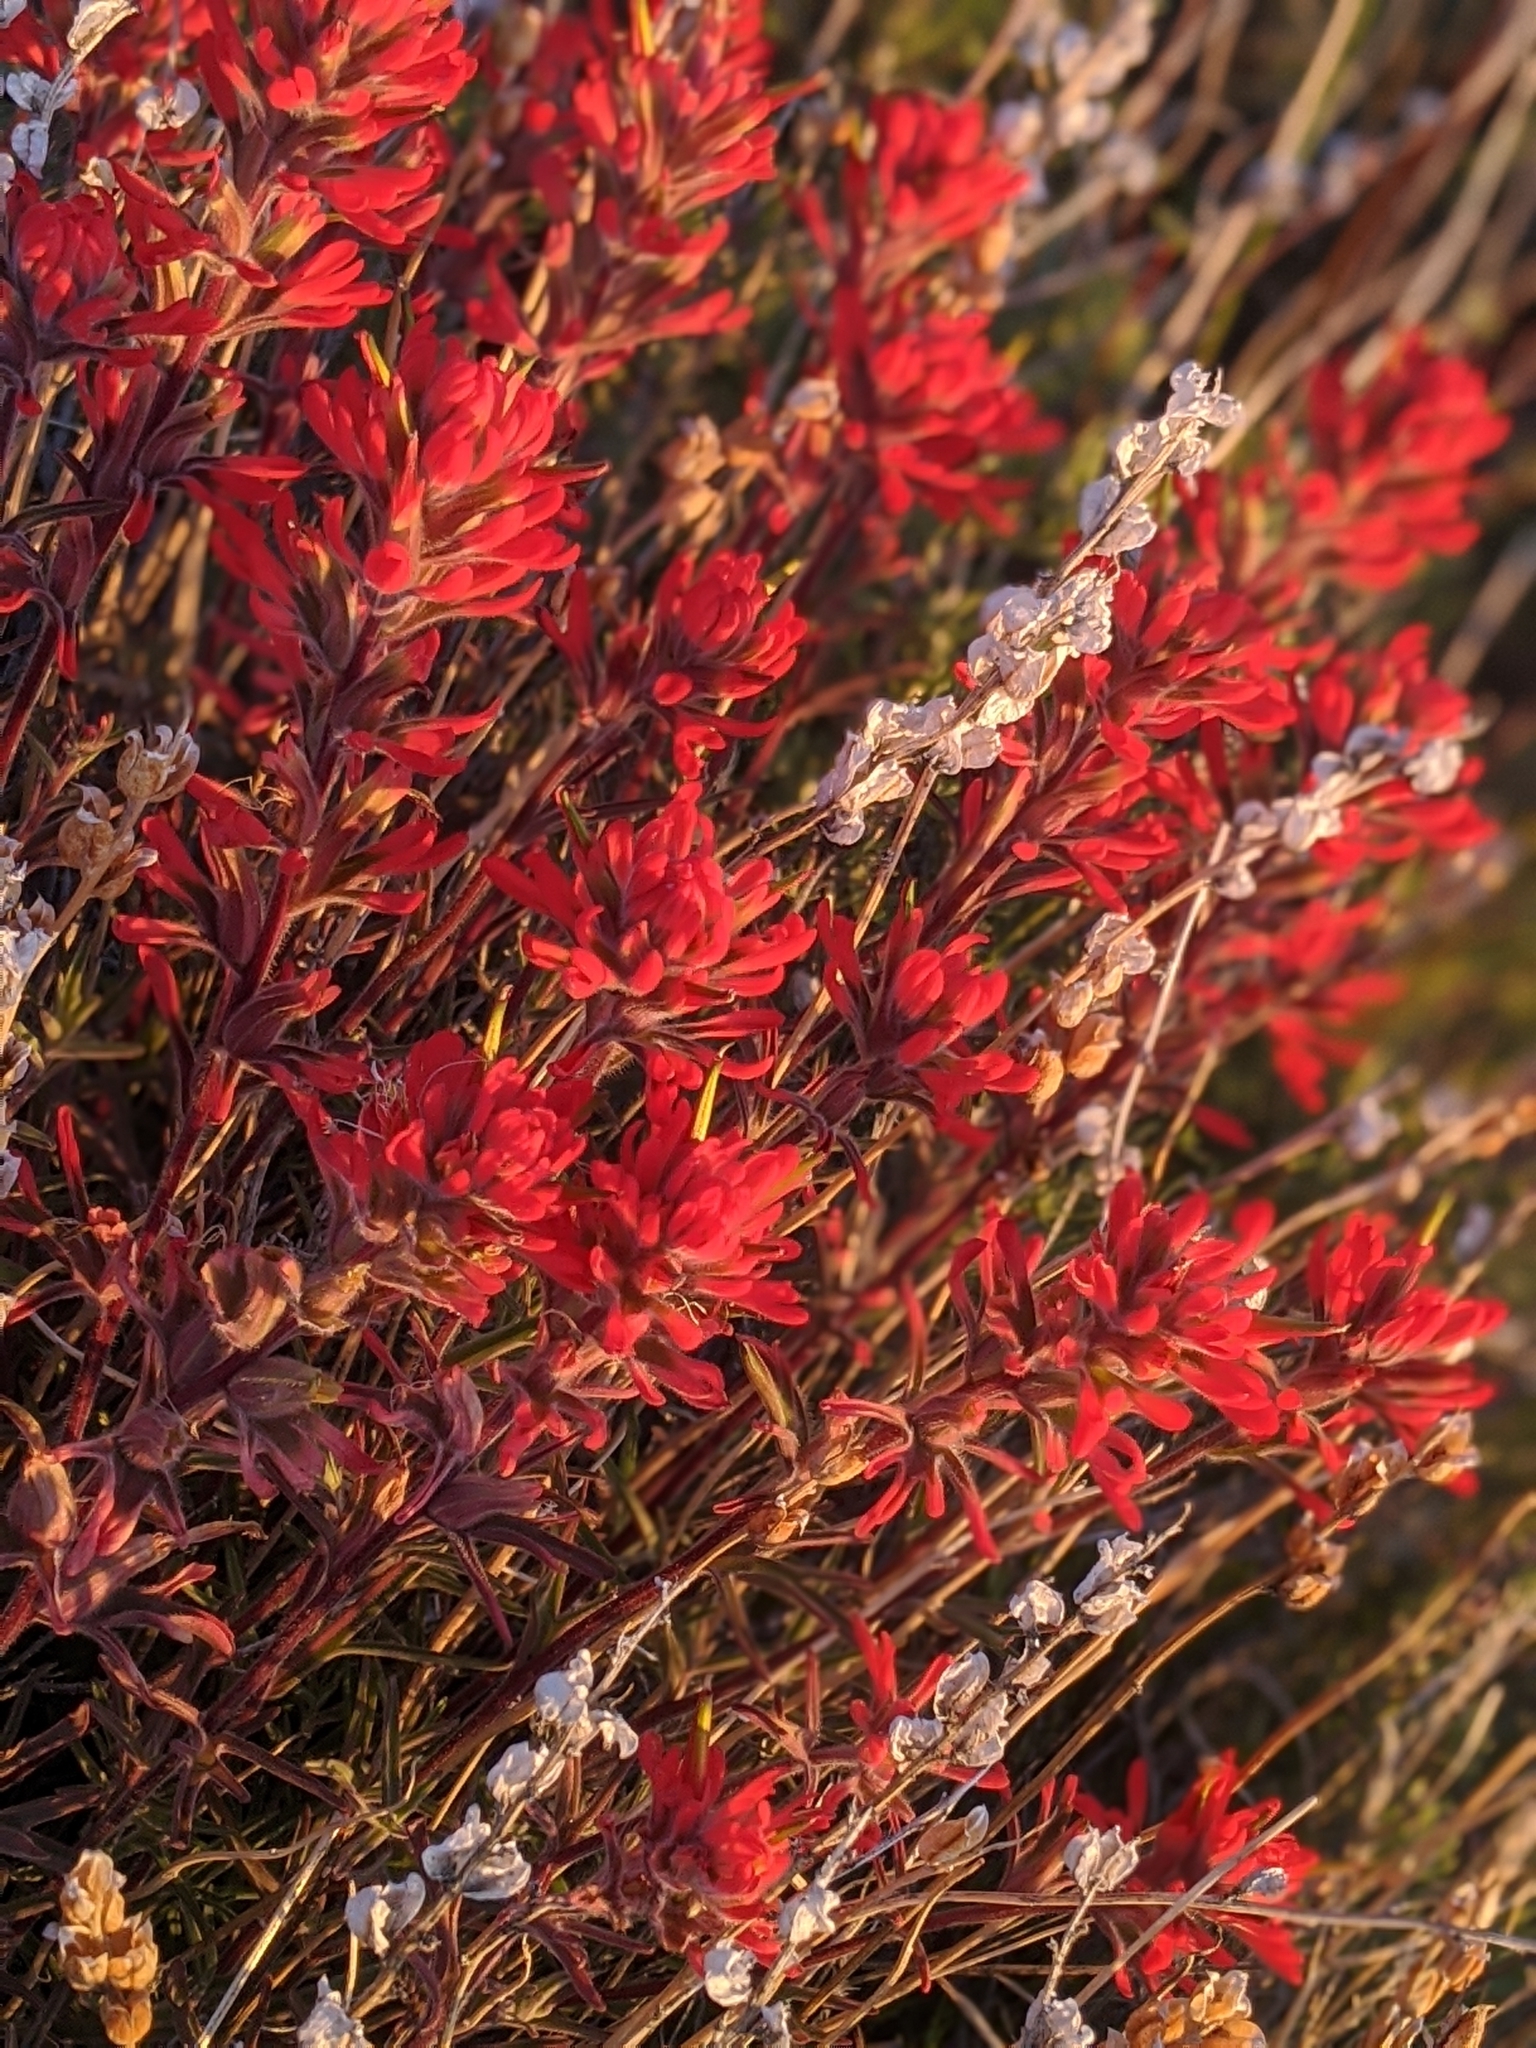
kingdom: Plantae
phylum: Tracheophyta
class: Magnoliopsida
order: Lamiales
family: Orobanchaceae
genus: Castilleja
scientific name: Castilleja chromosa
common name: Desert paintbrush
